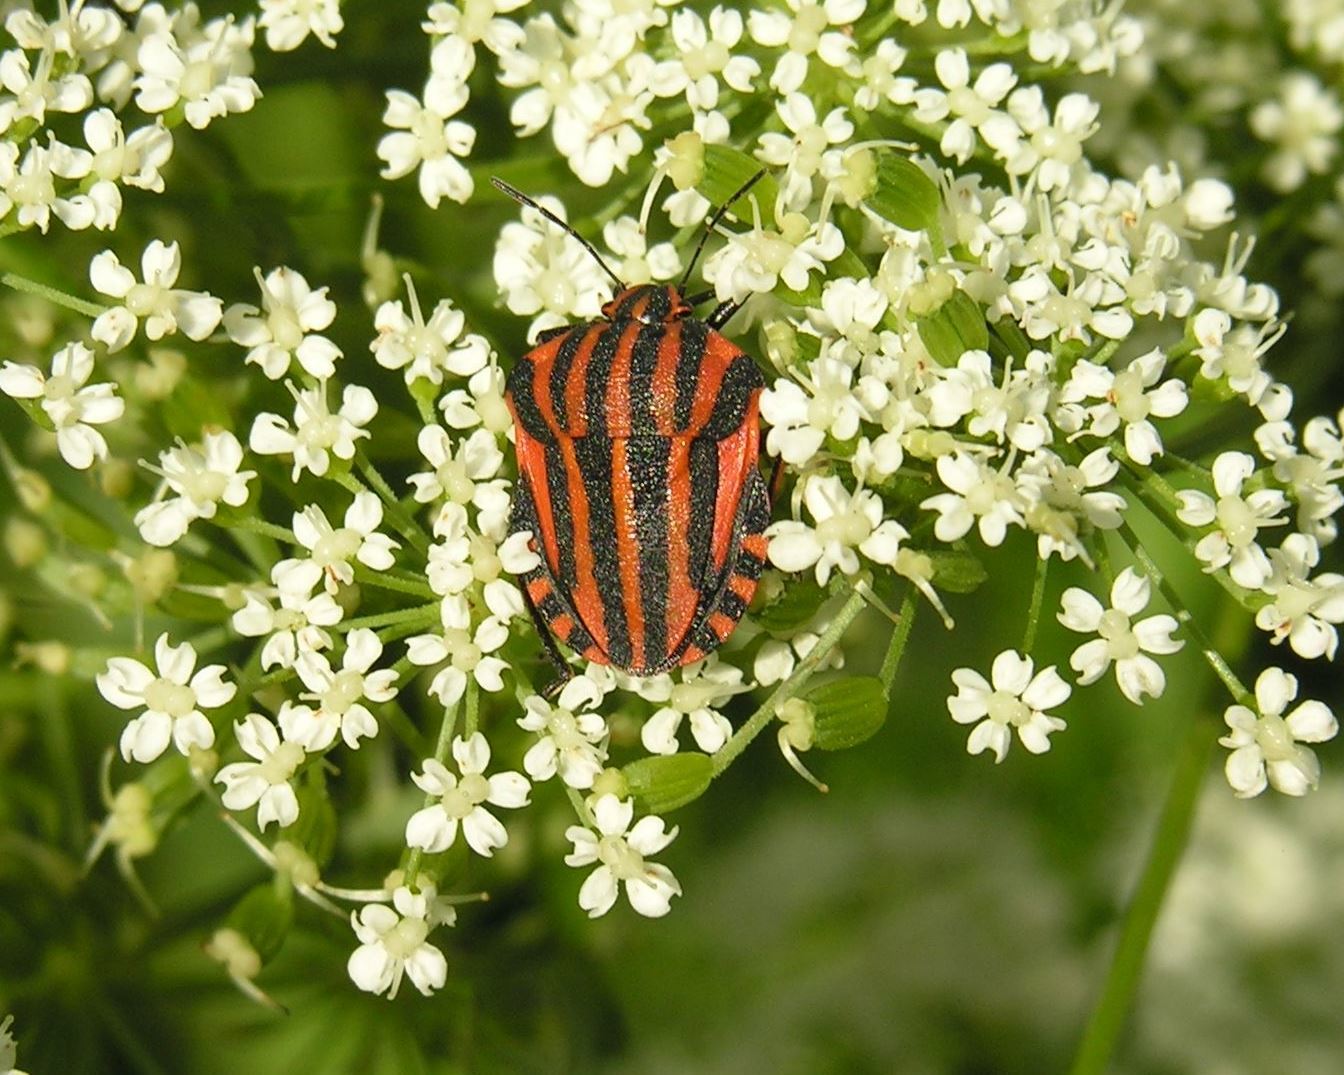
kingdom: Animalia
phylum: Arthropoda
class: Insecta
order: Hemiptera
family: Pentatomidae
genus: Graphosoma
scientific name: Graphosoma italicum
